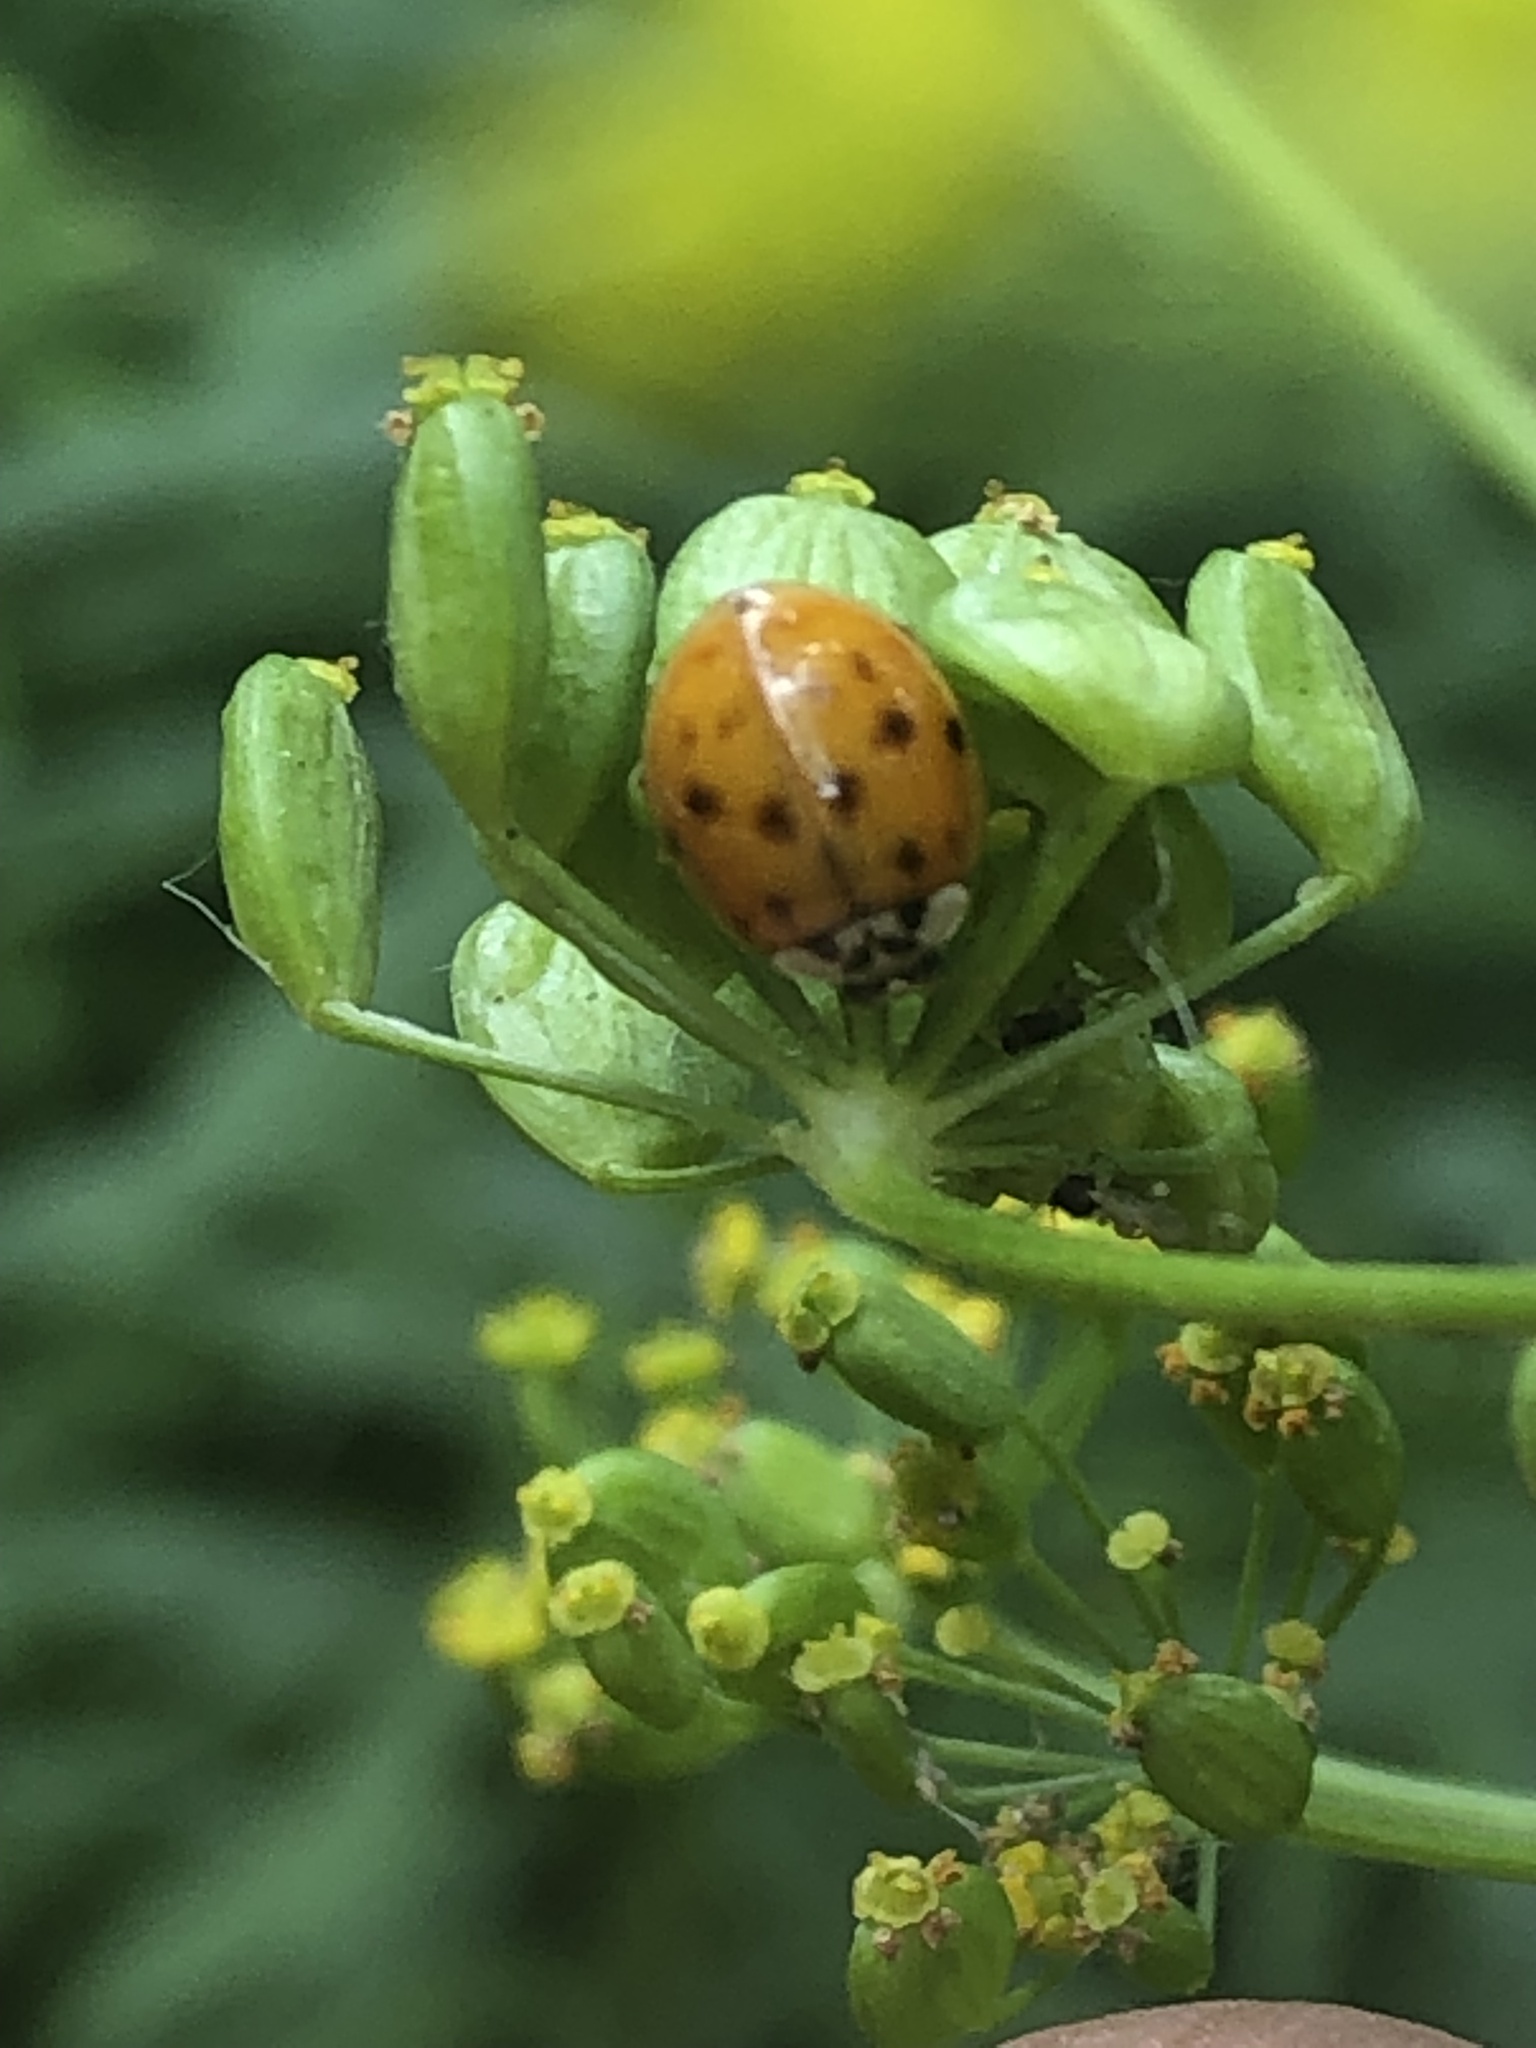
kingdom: Animalia
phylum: Arthropoda
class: Insecta
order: Coleoptera
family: Coccinellidae
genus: Harmonia
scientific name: Harmonia axyridis
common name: Harlequin ladybird
